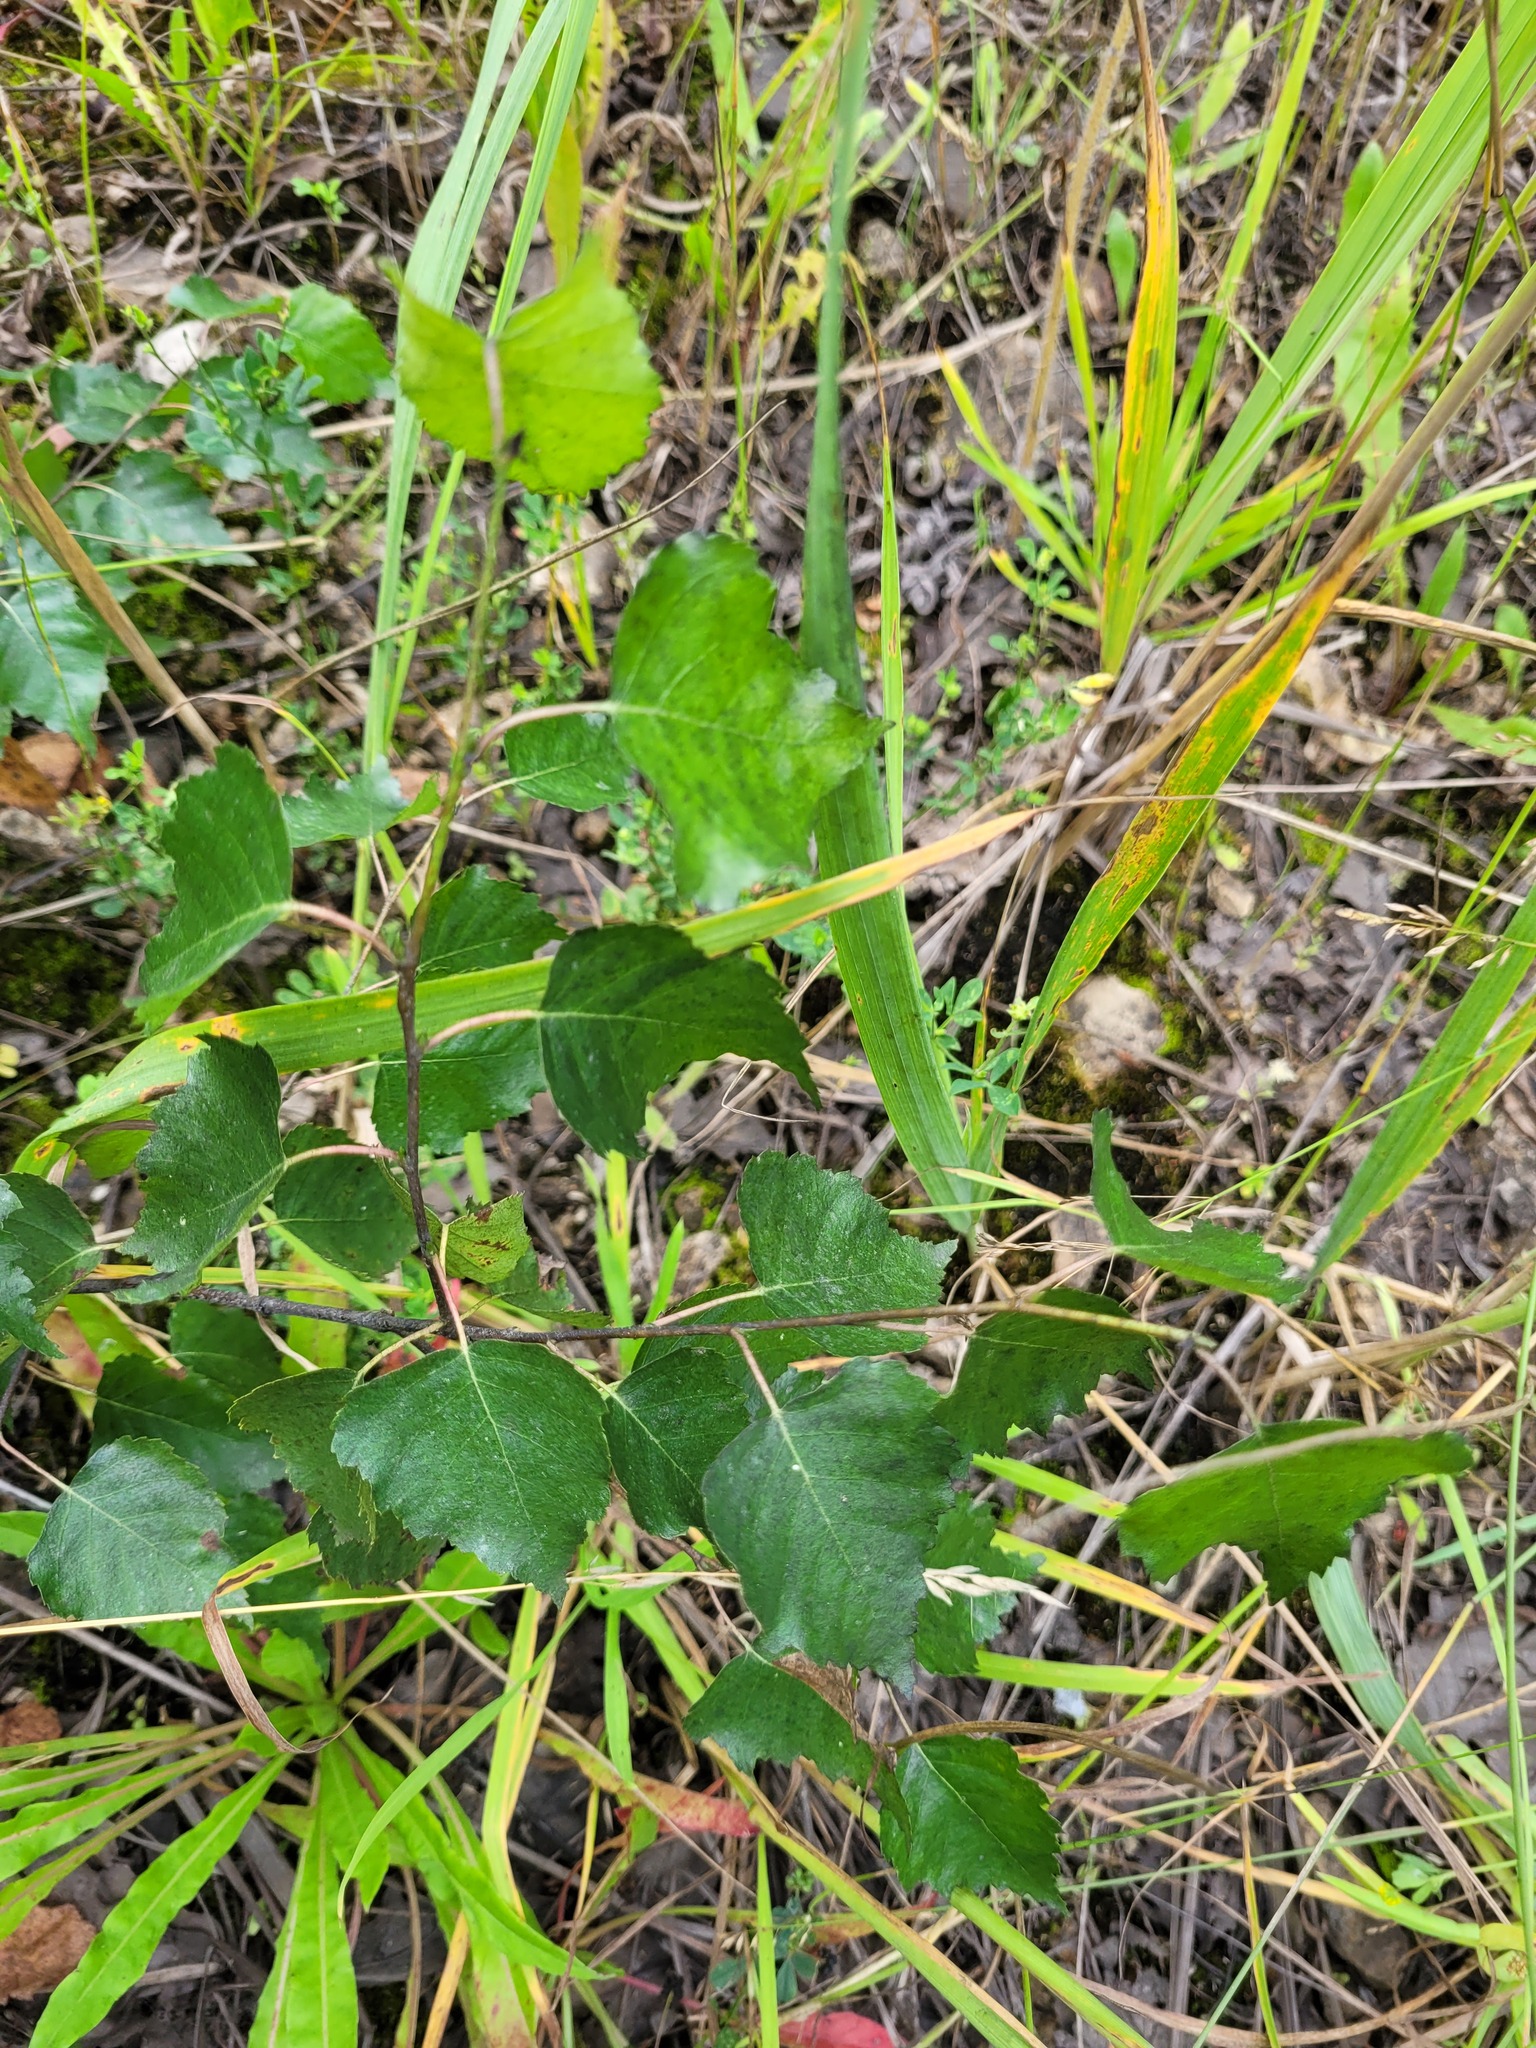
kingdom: Plantae
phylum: Tracheophyta
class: Magnoliopsida
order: Fagales
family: Betulaceae
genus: Betula
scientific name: Betula pendula
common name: Silver birch
